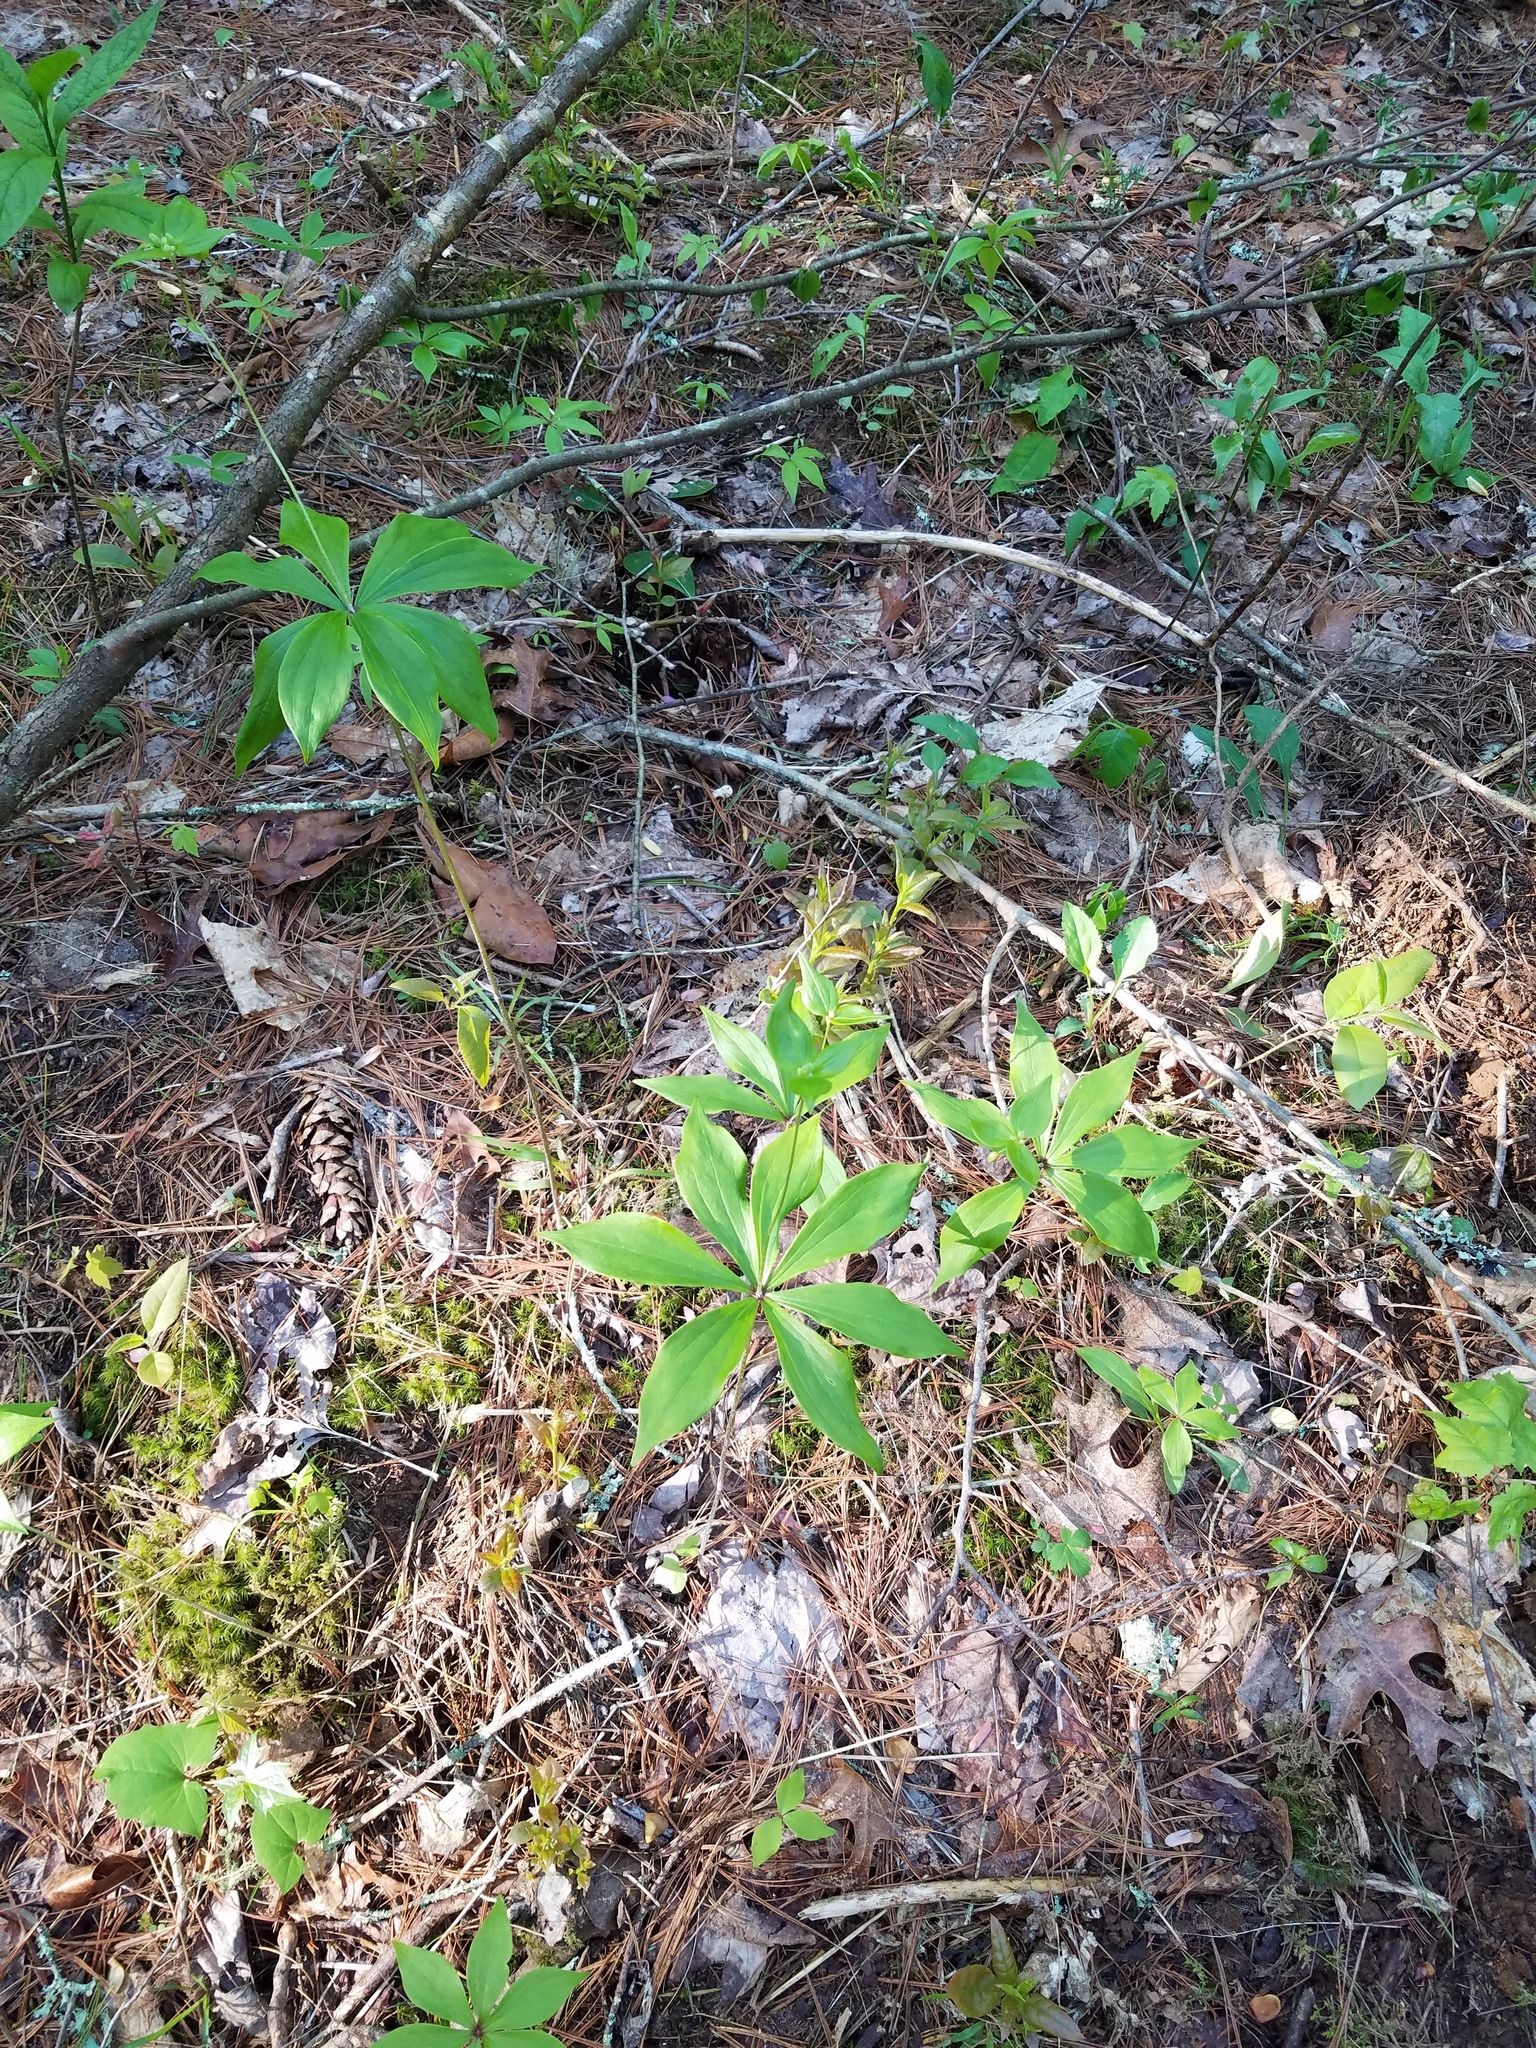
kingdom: Plantae
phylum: Tracheophyta
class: Liliopsida
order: Liliales
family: Liliaceae
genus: Medeola
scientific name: Medeola virginiana
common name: Indian cucumber-root
